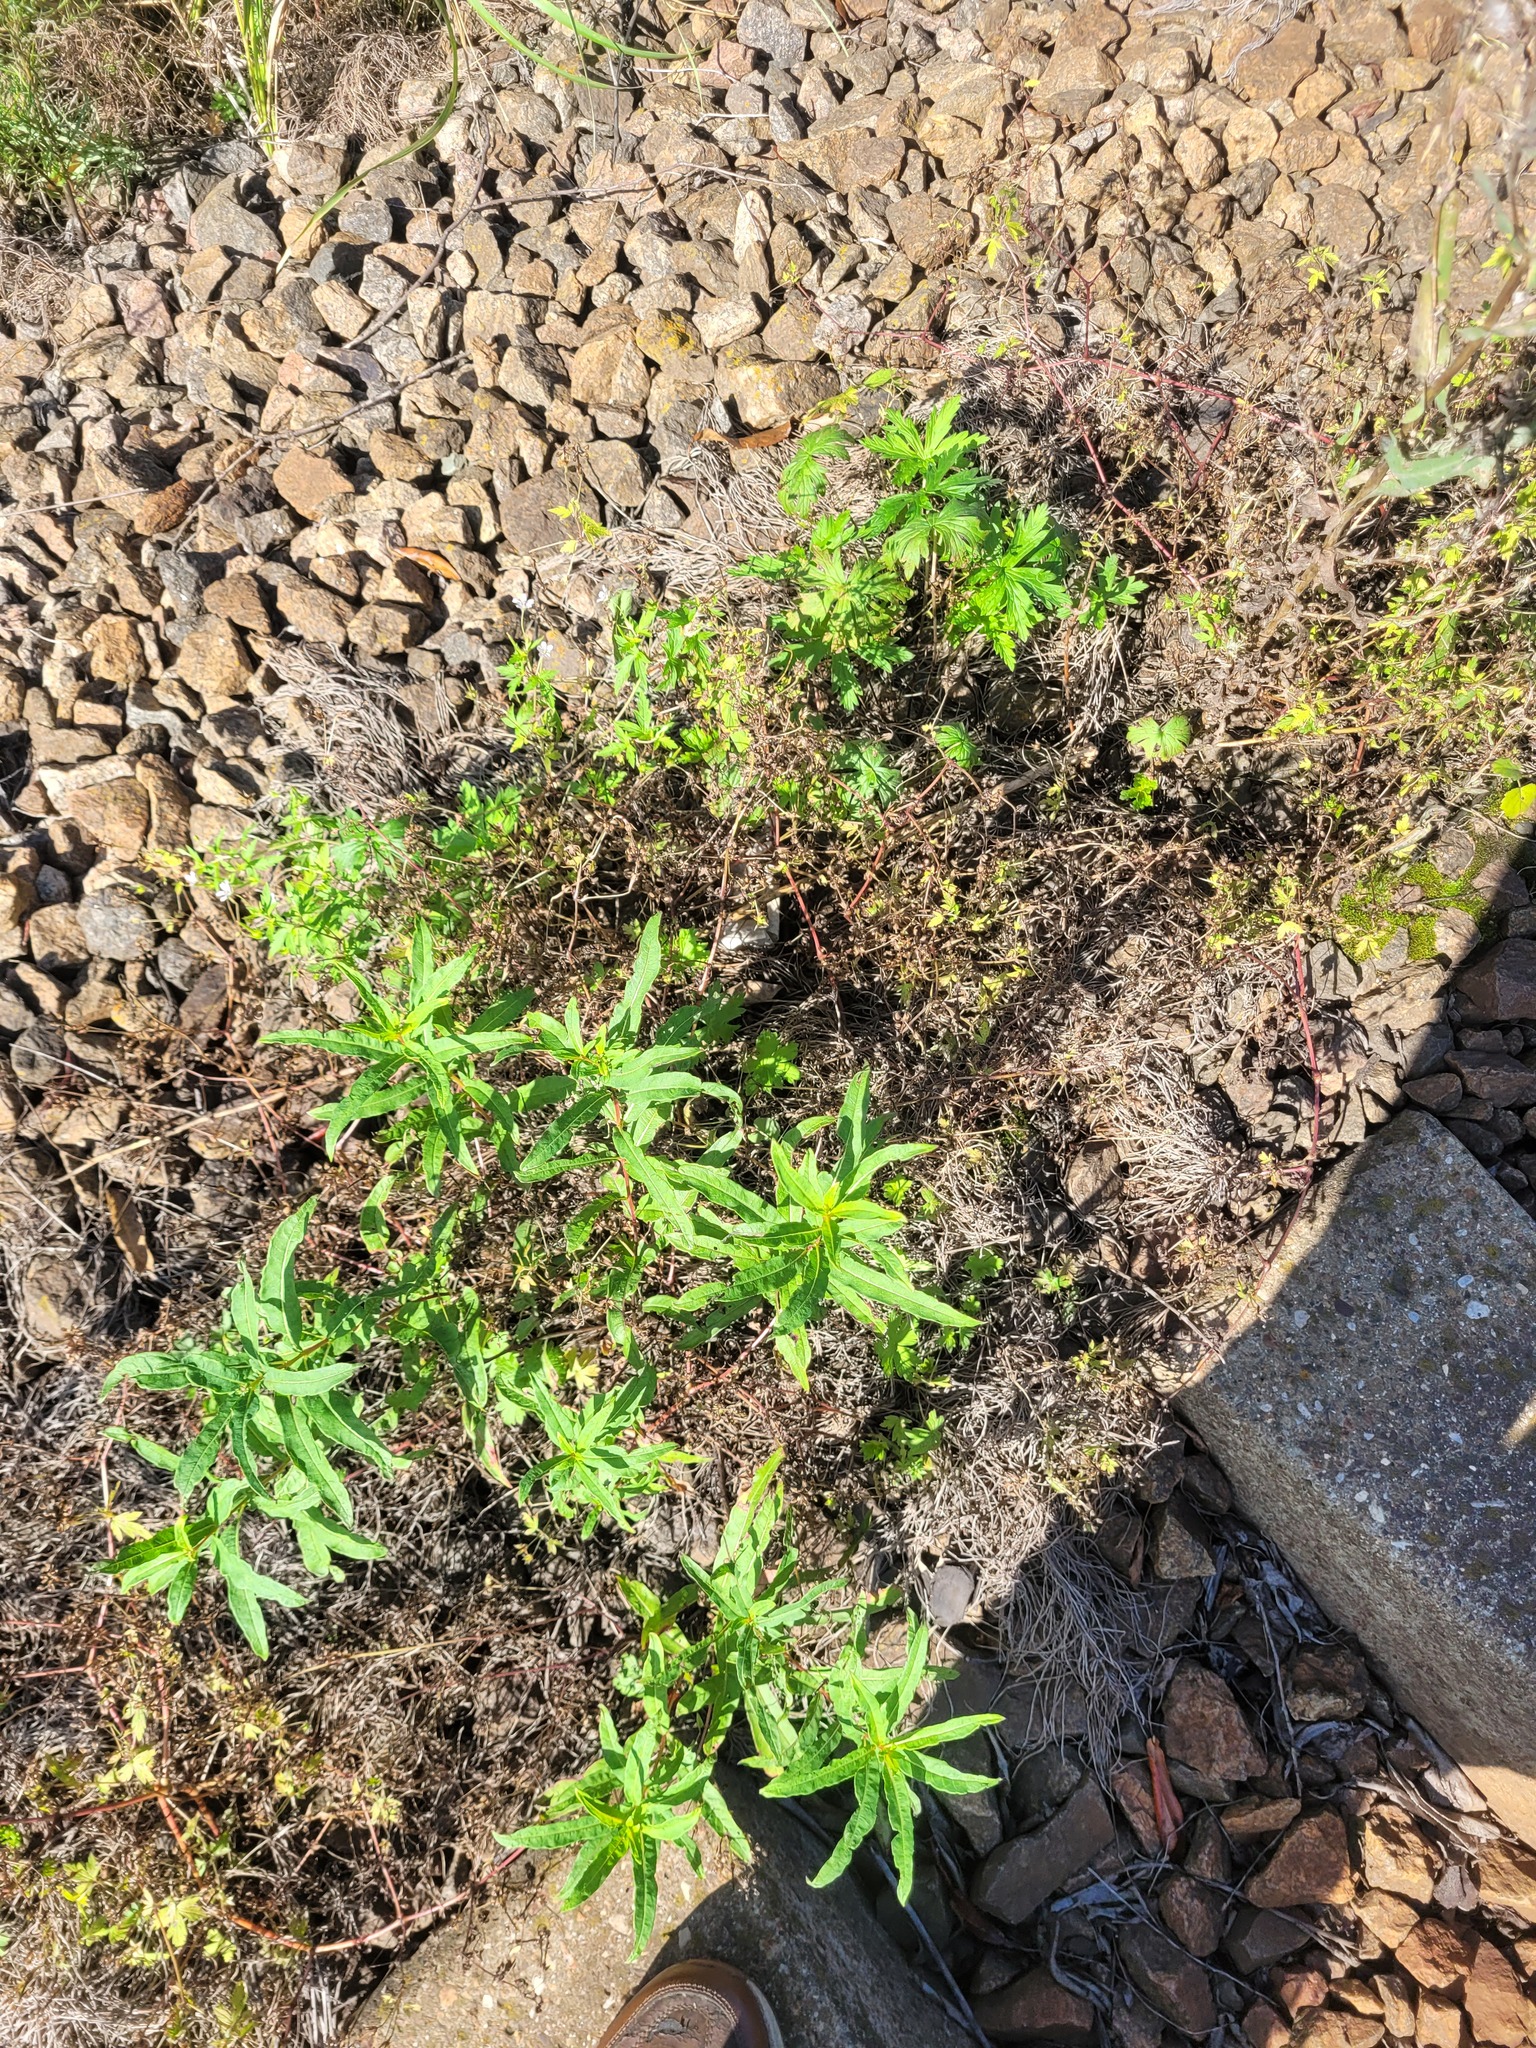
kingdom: Plantae
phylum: Tracheophyta
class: Magnoliopsida
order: Myrtales
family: Onagraceae
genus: Chamaenerion
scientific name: Chamaenerion angustifolium
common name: Fireweed
